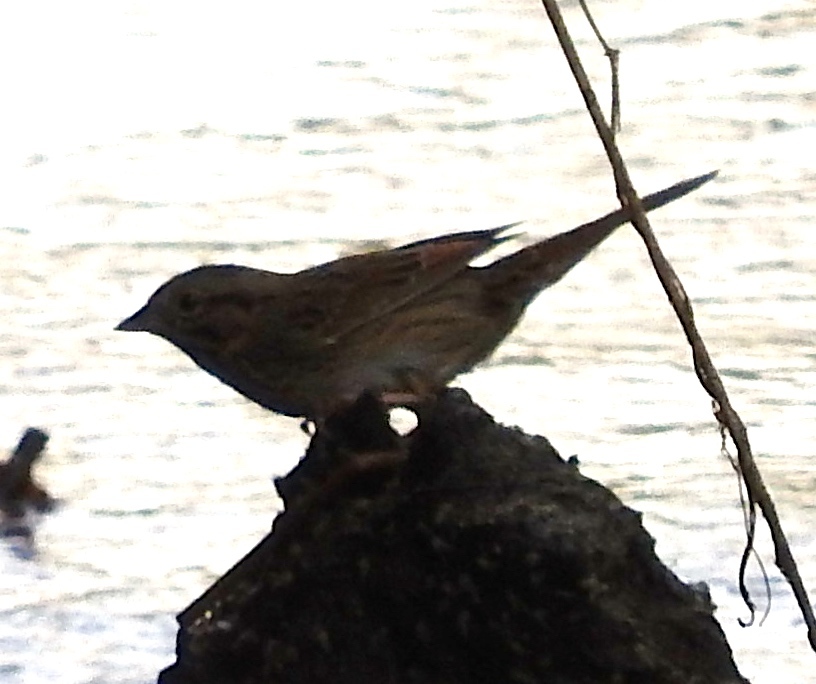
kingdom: Animalia
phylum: Chordata
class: Aves
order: Passeriformes
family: Passerellidae
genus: Melospiza
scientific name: Melospiza lincolnii
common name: Lincoln's sparrow
